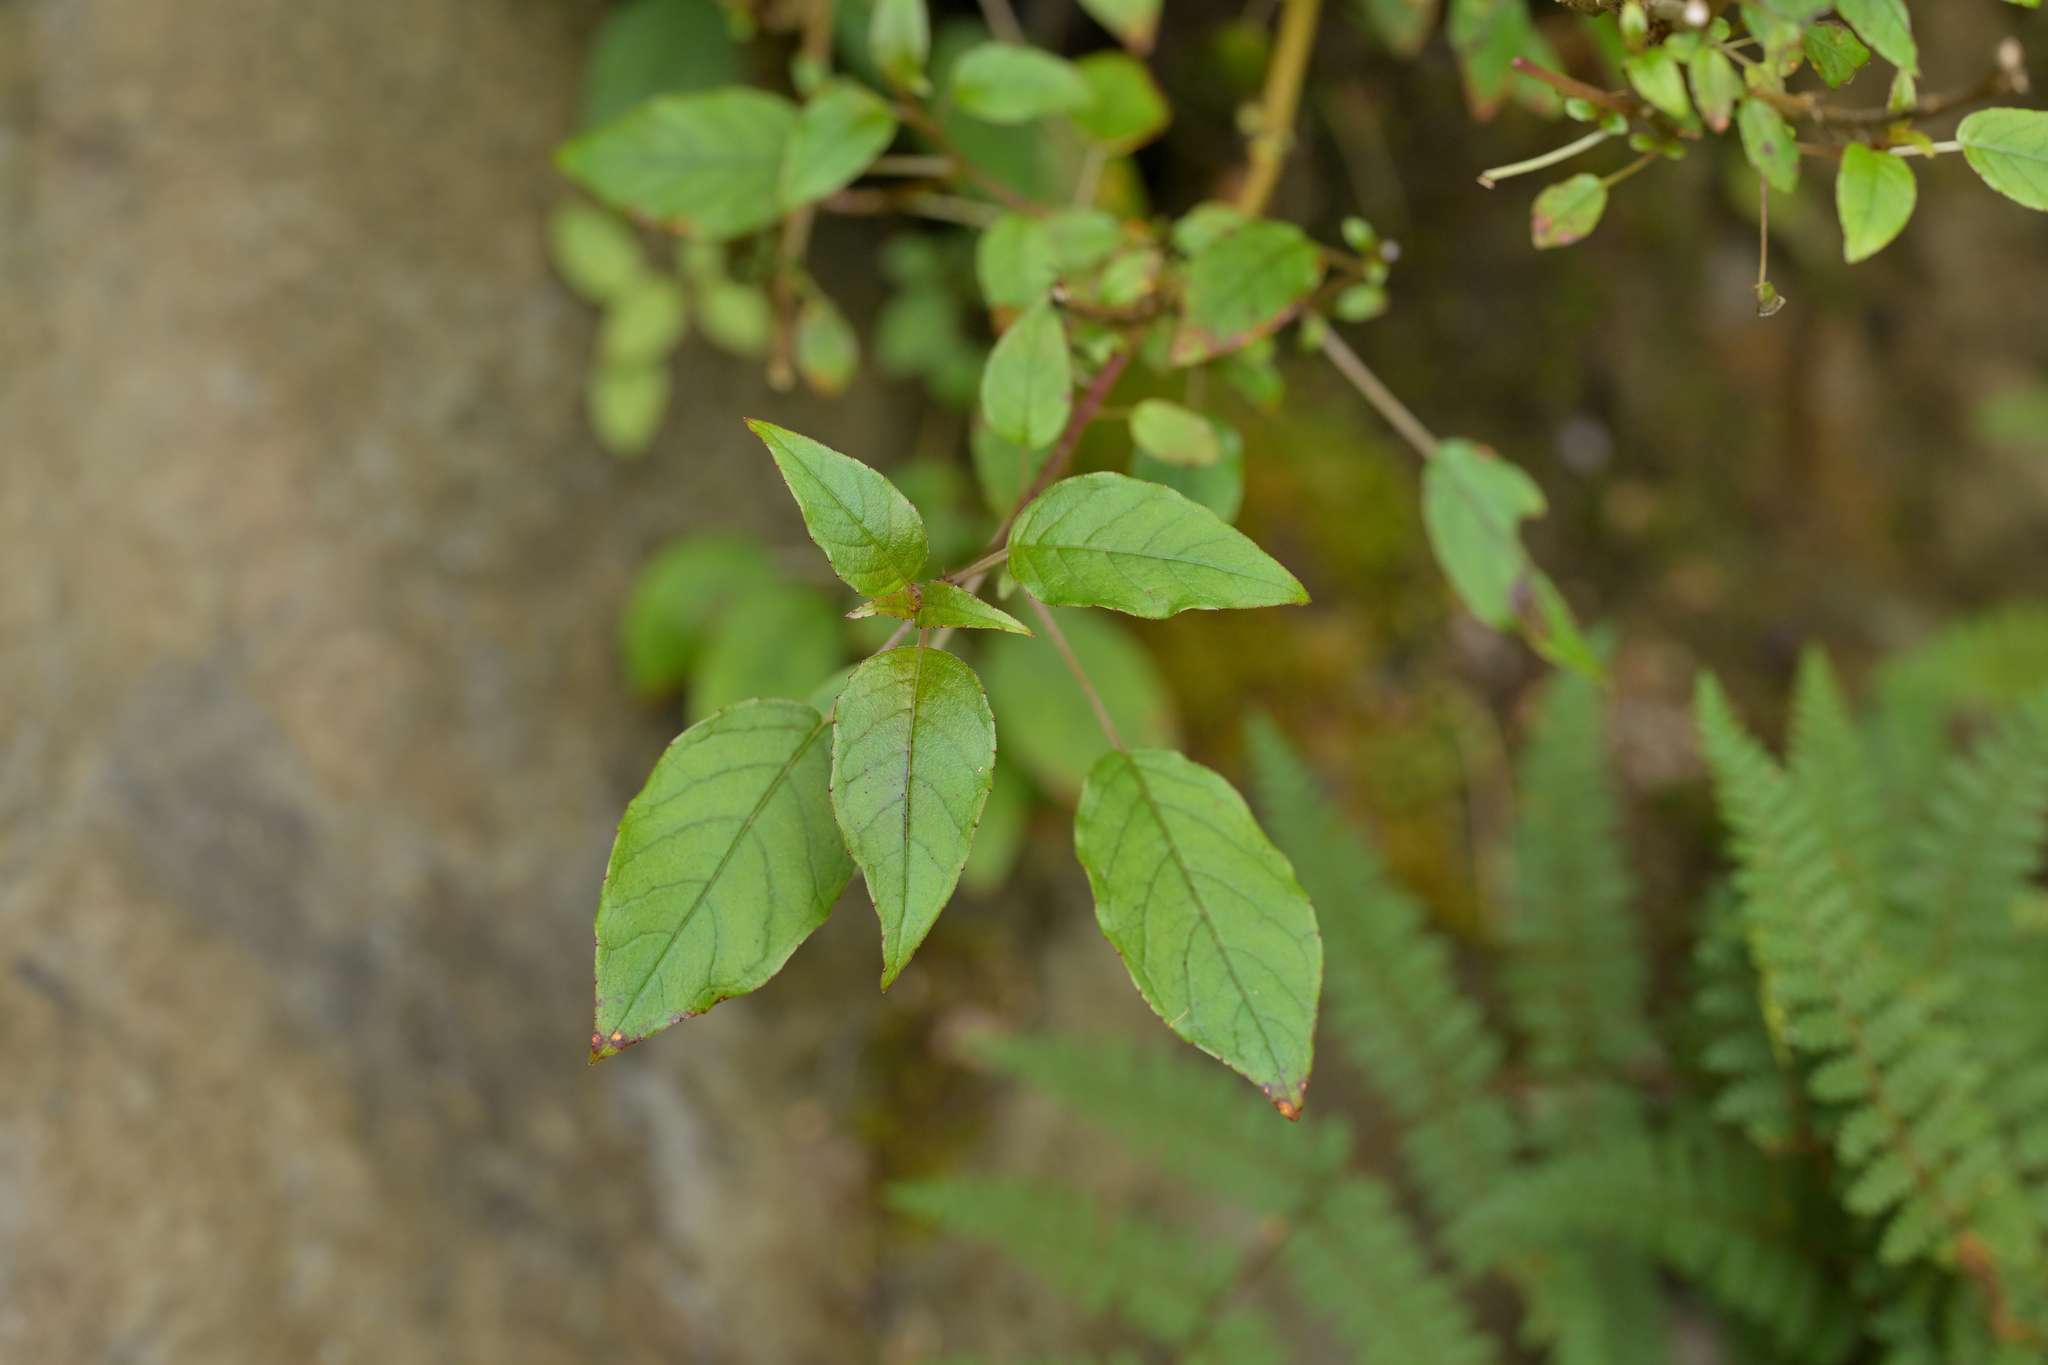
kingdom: Plantae
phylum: Tracheophyta
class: Magnoliopsida
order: Myrtales
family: Onagraceae
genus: Fuchsia
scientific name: Fuchsia excorticata
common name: Tree fuchsia
